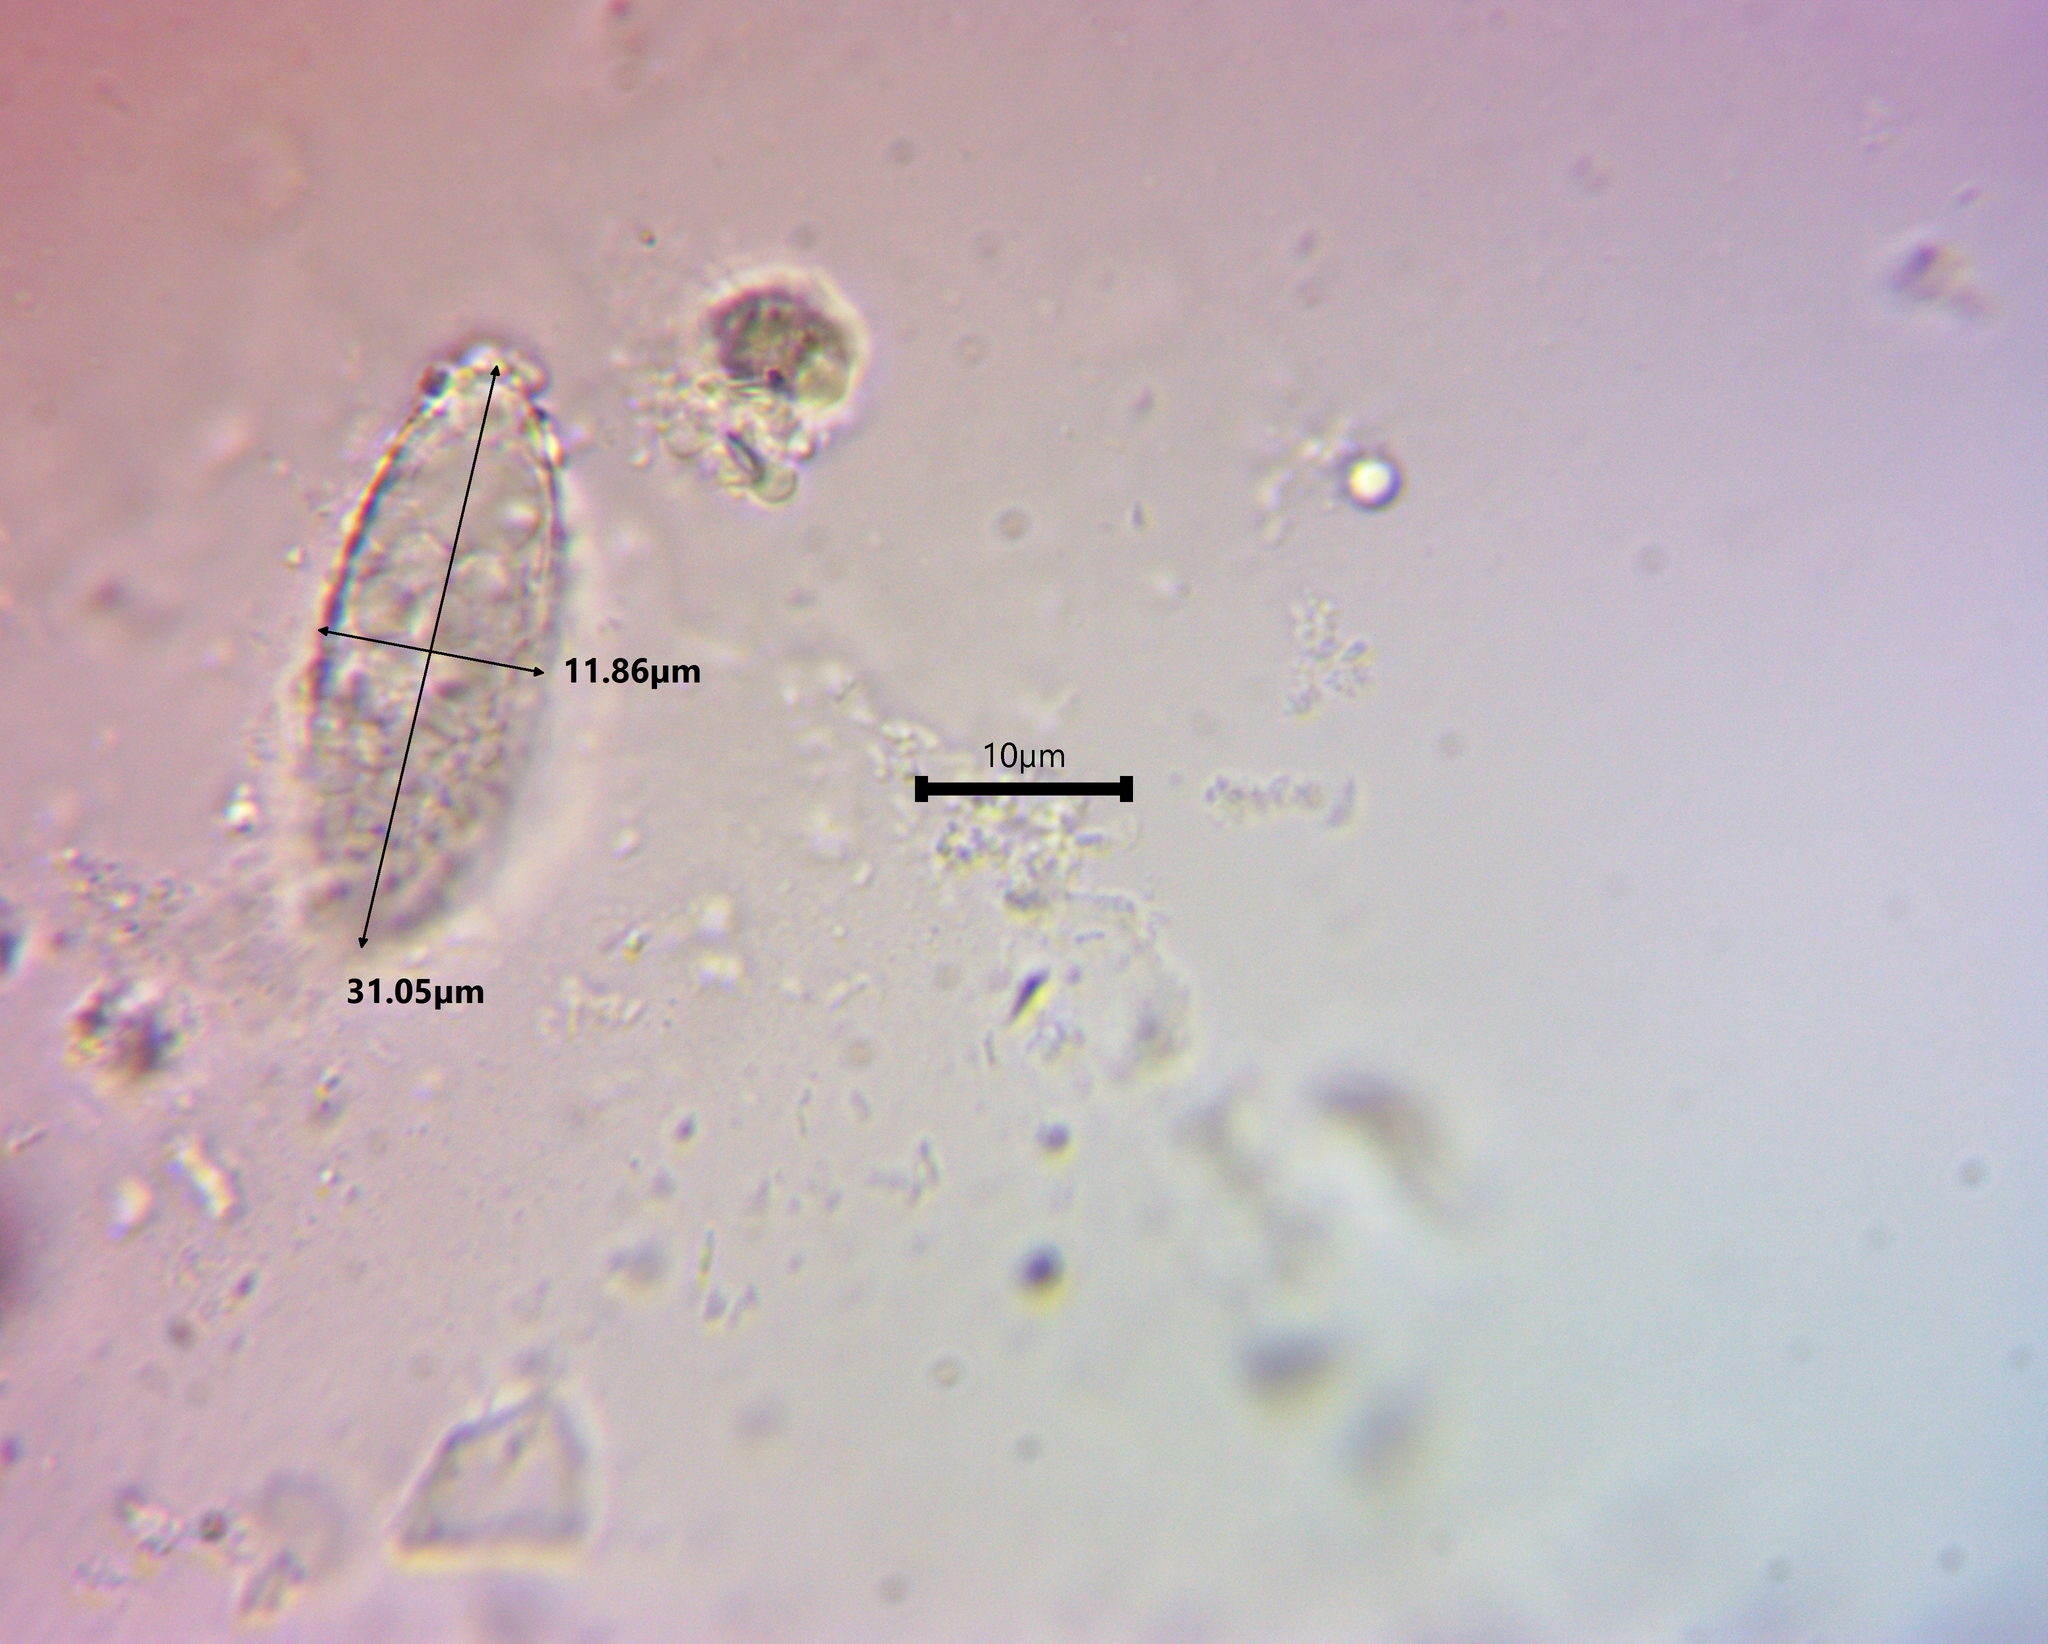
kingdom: Fungi
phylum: Ascomycota
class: Pezizomycetes
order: Pezizales
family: Pyronemataceae
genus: Jafnea
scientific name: Jafnea semitosta
